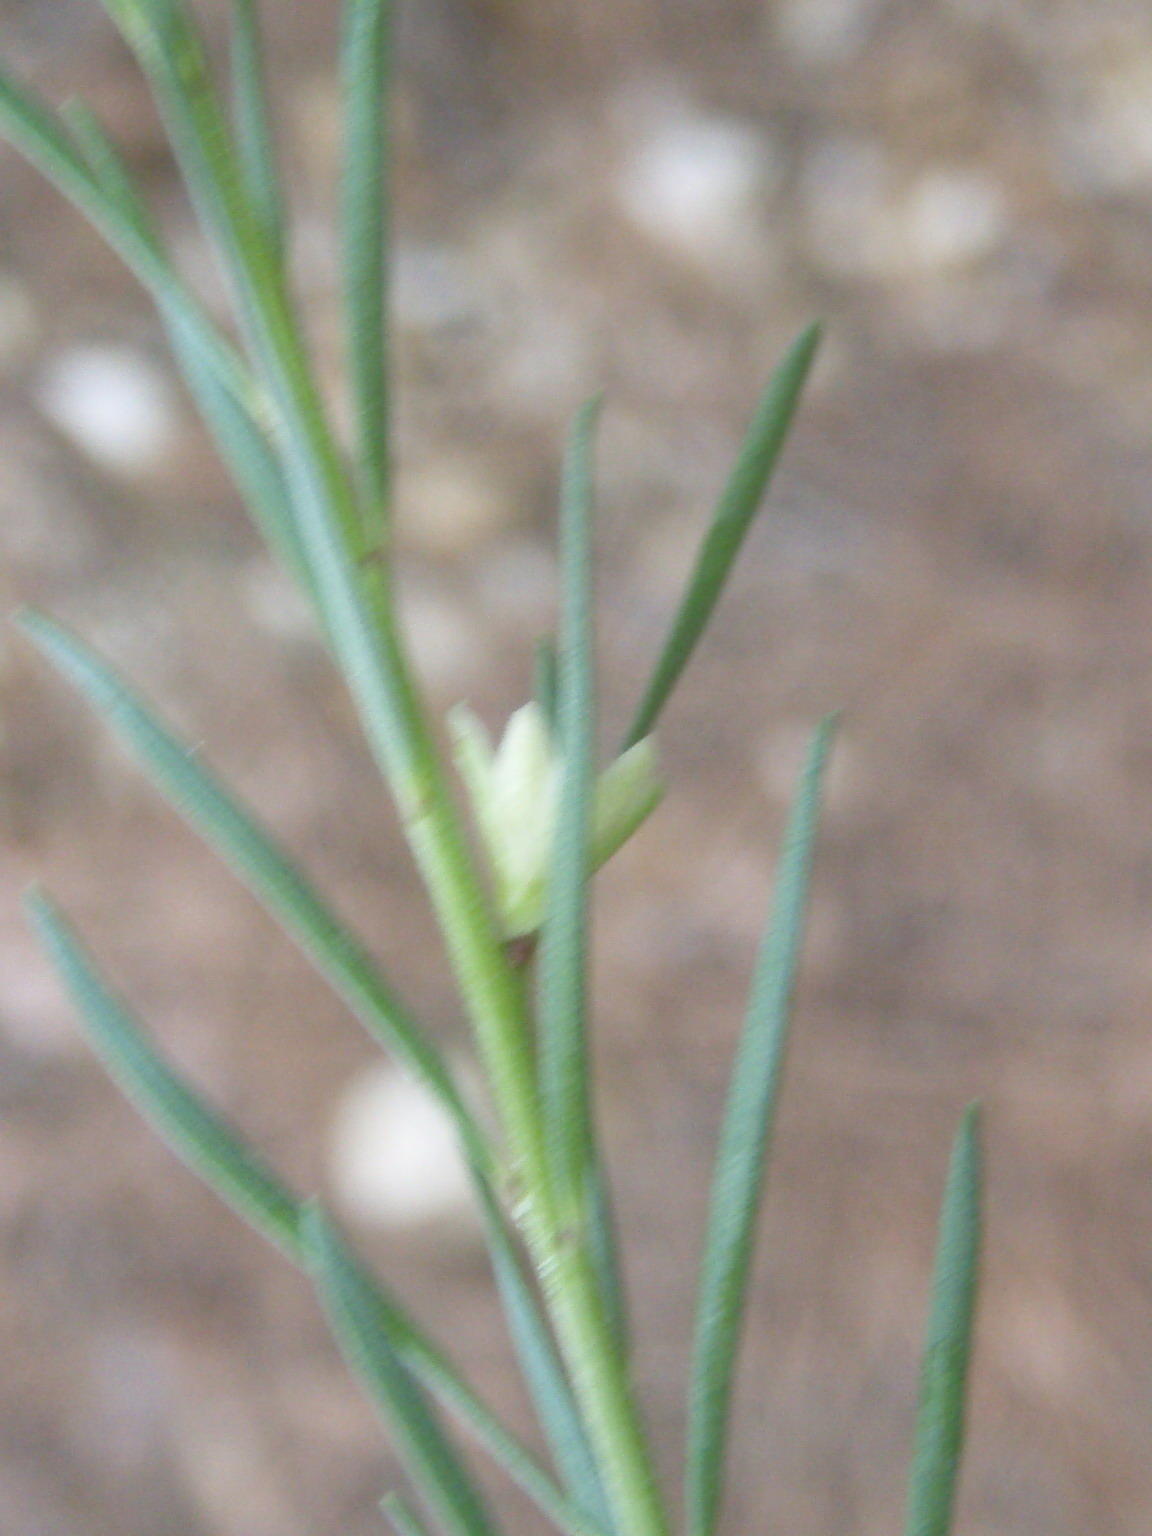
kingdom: Plantae
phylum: Tracheophyta
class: Magnoliopsida
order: Malpighiales
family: Peraceae
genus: Clutia
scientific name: Clutia ericoides
